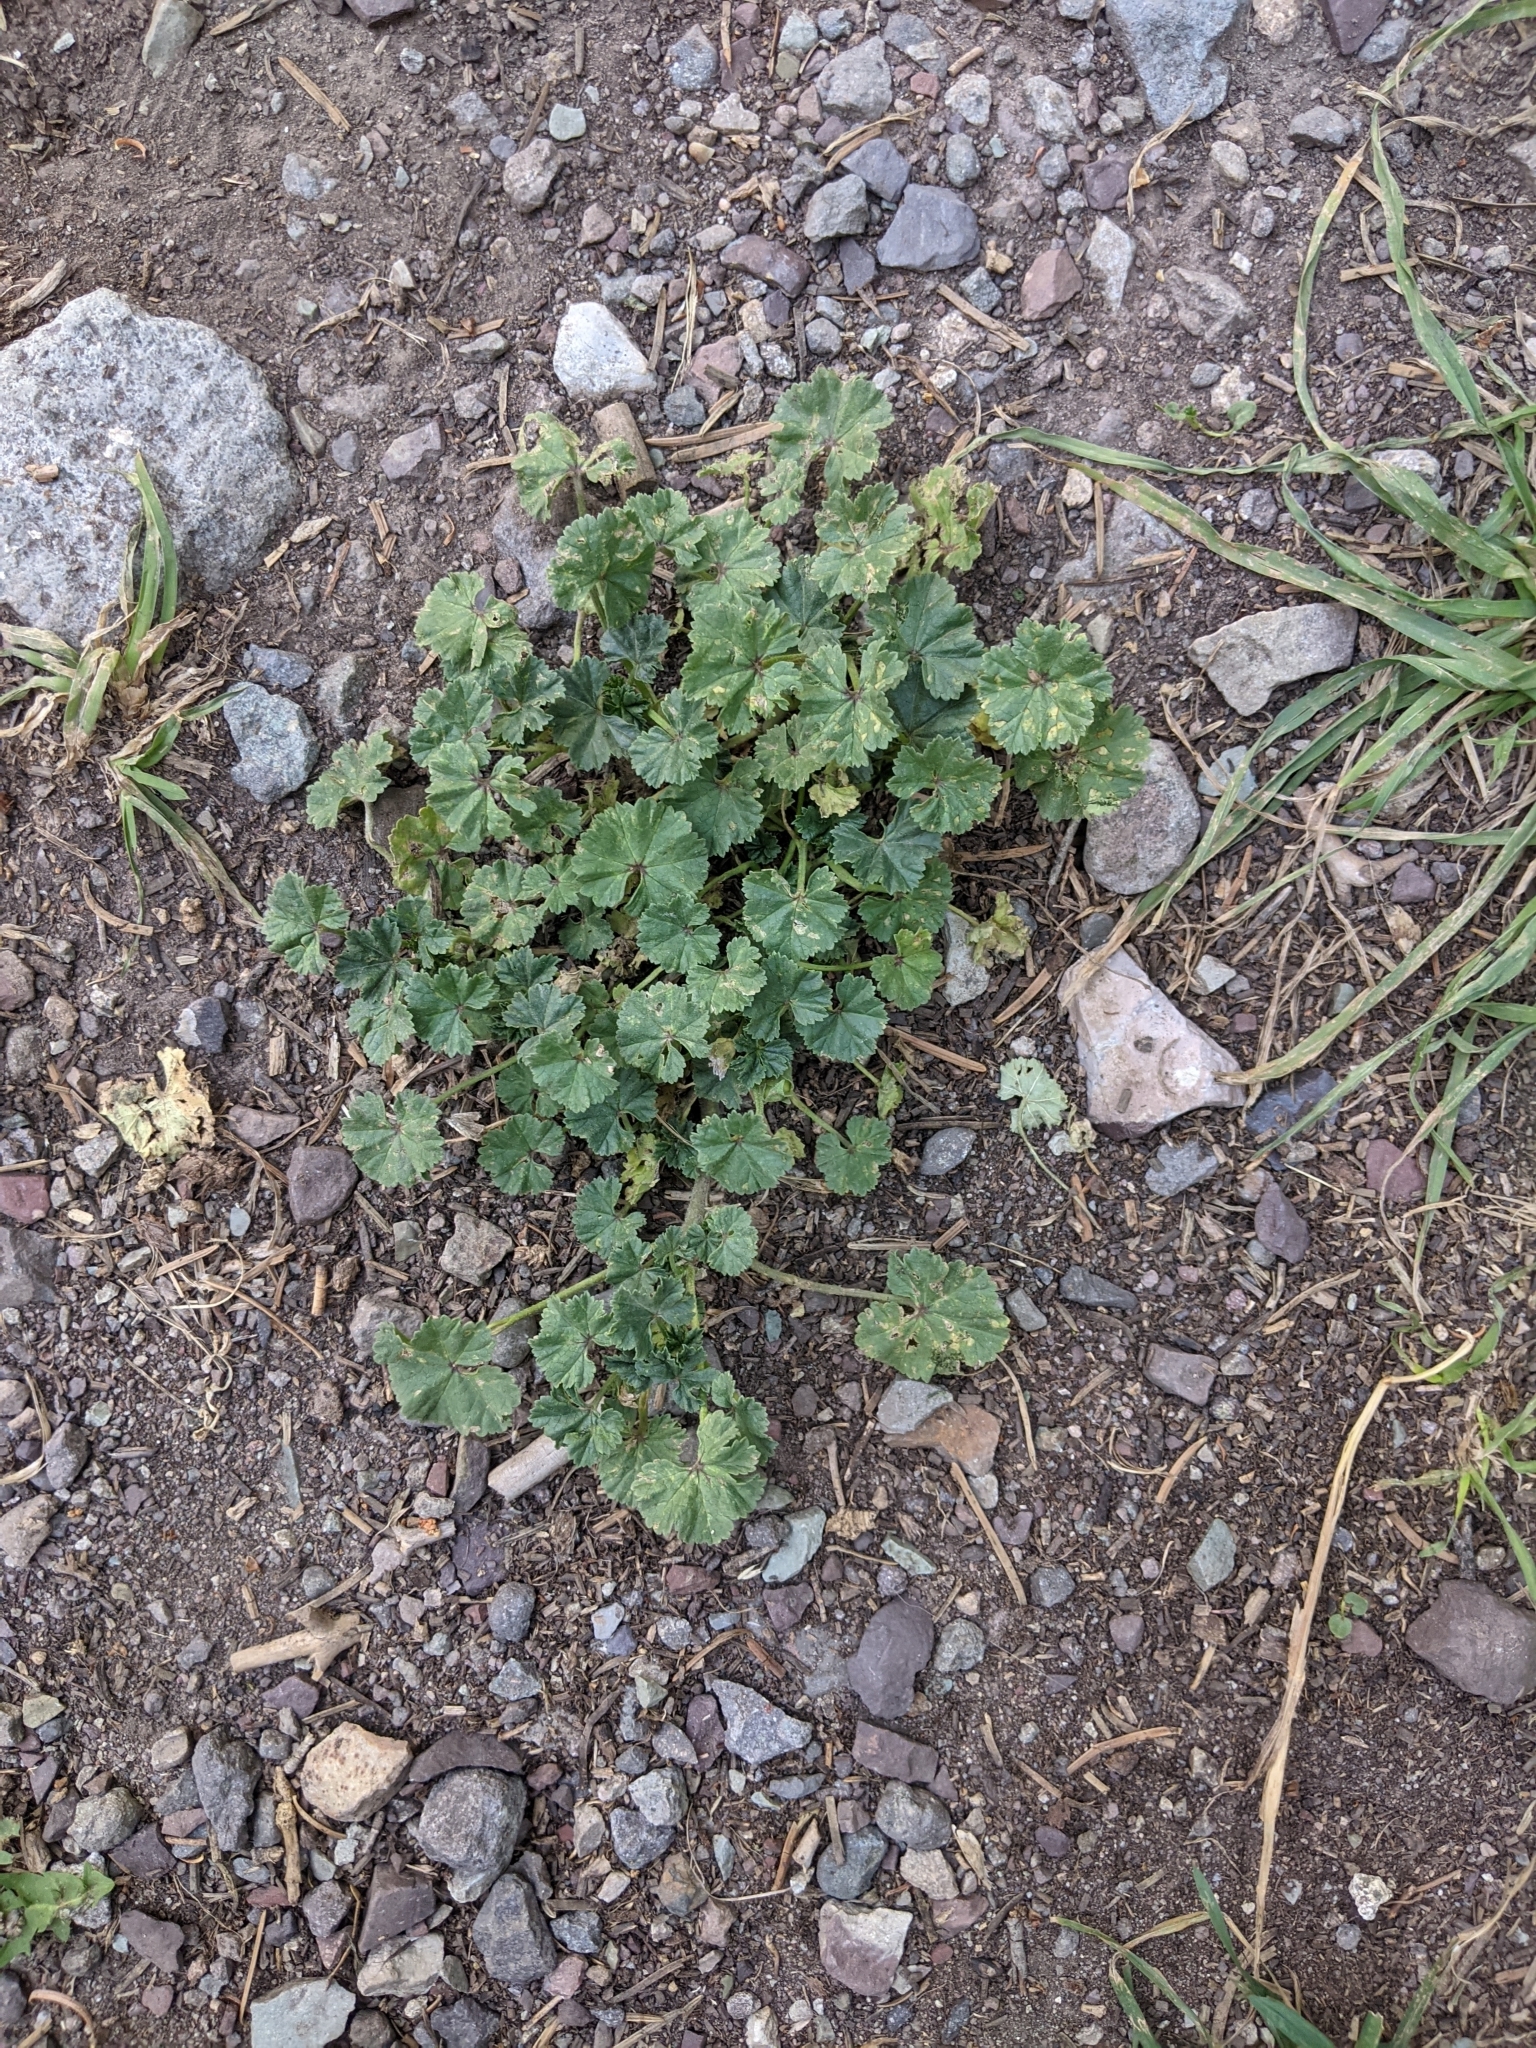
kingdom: Plantae
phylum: Tracheophyta
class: Magnoliopsida
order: Malvales
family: Malvaceae
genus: Malva
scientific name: Malva neglecta
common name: Common mallow
